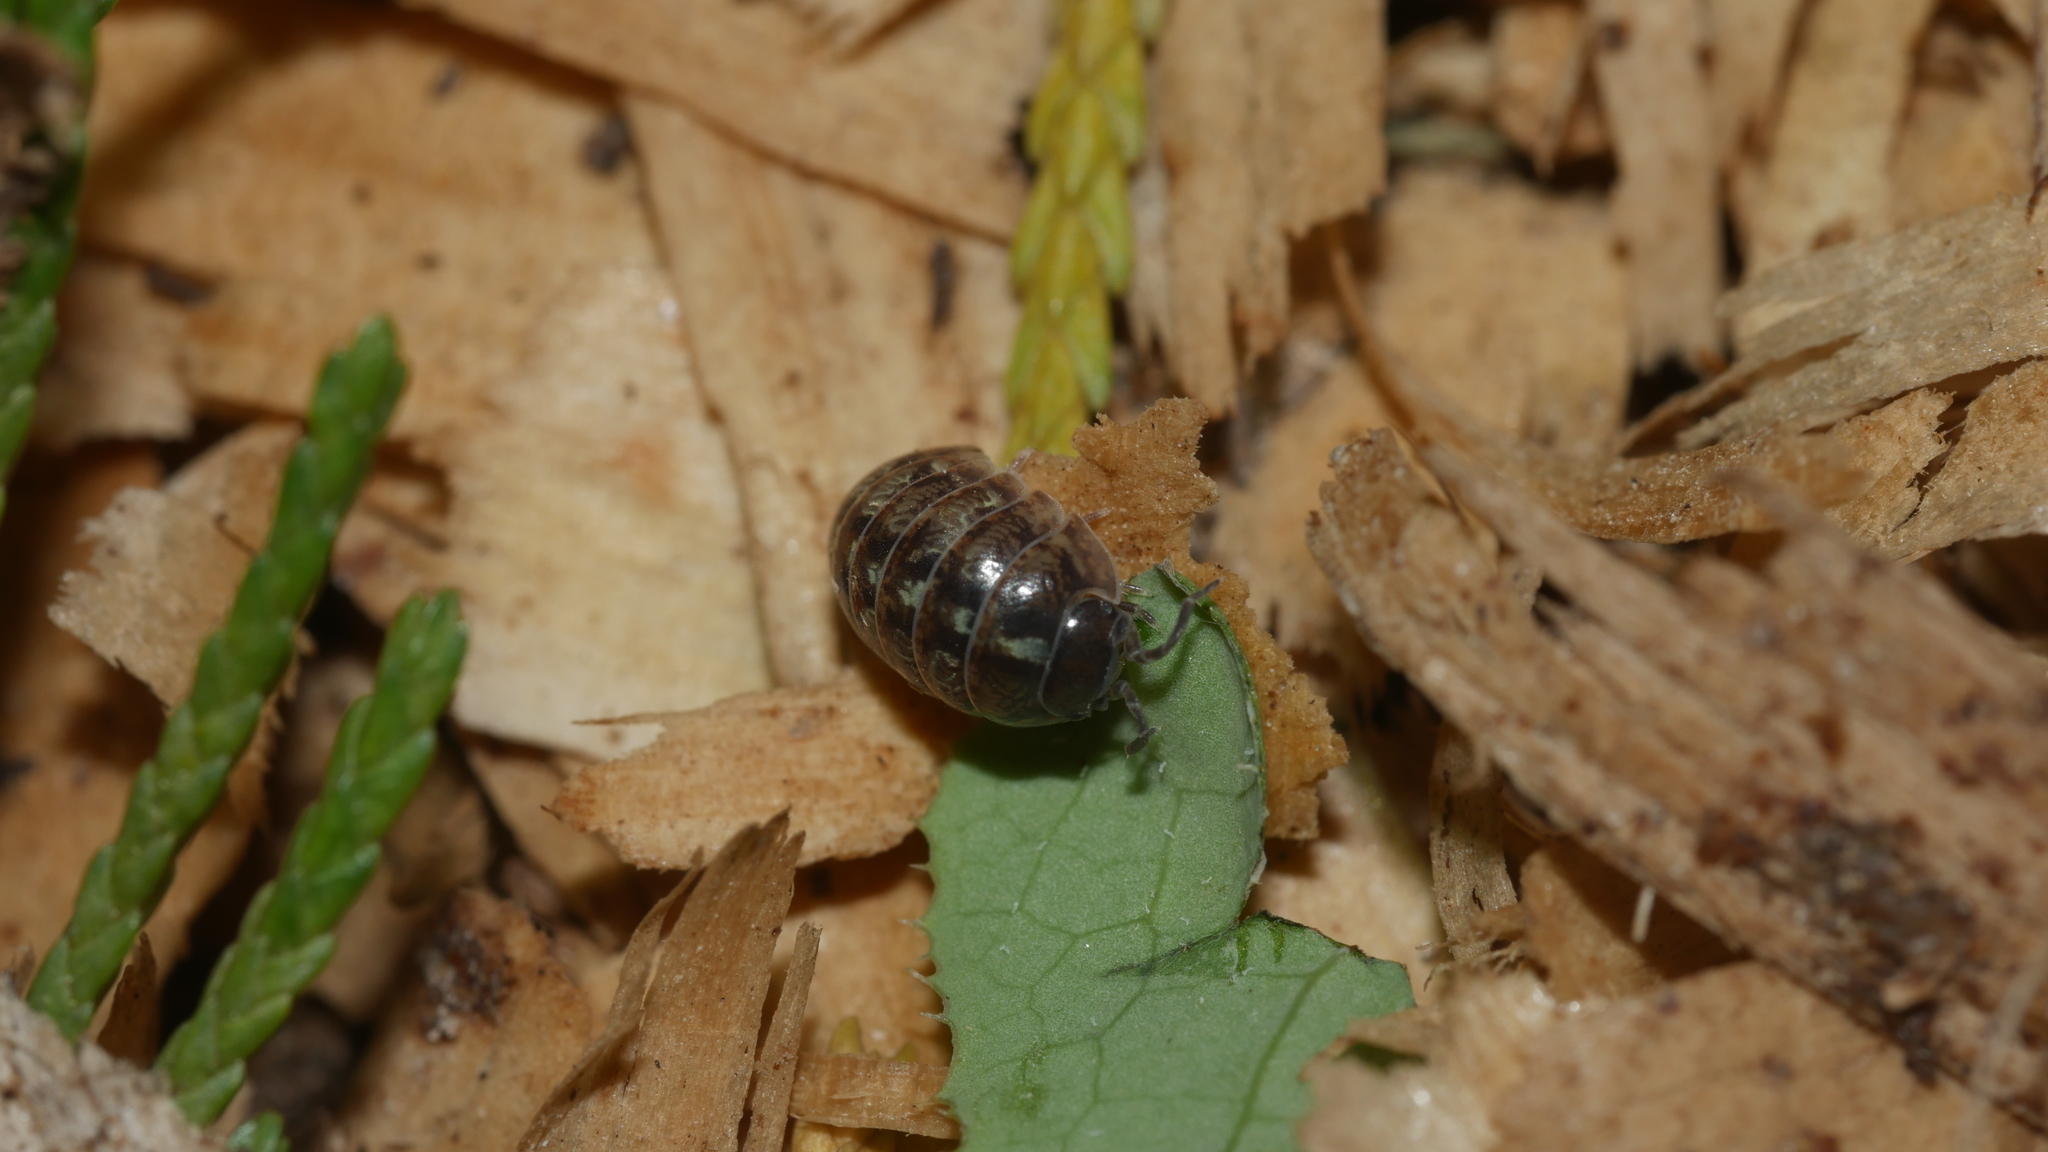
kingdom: Animalia
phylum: Arthropoda
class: Malacostraca
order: Isopoda
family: Armadillidiidae
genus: Armadillidium
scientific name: Armadillidium vulgare
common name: Common pill woodlouse
